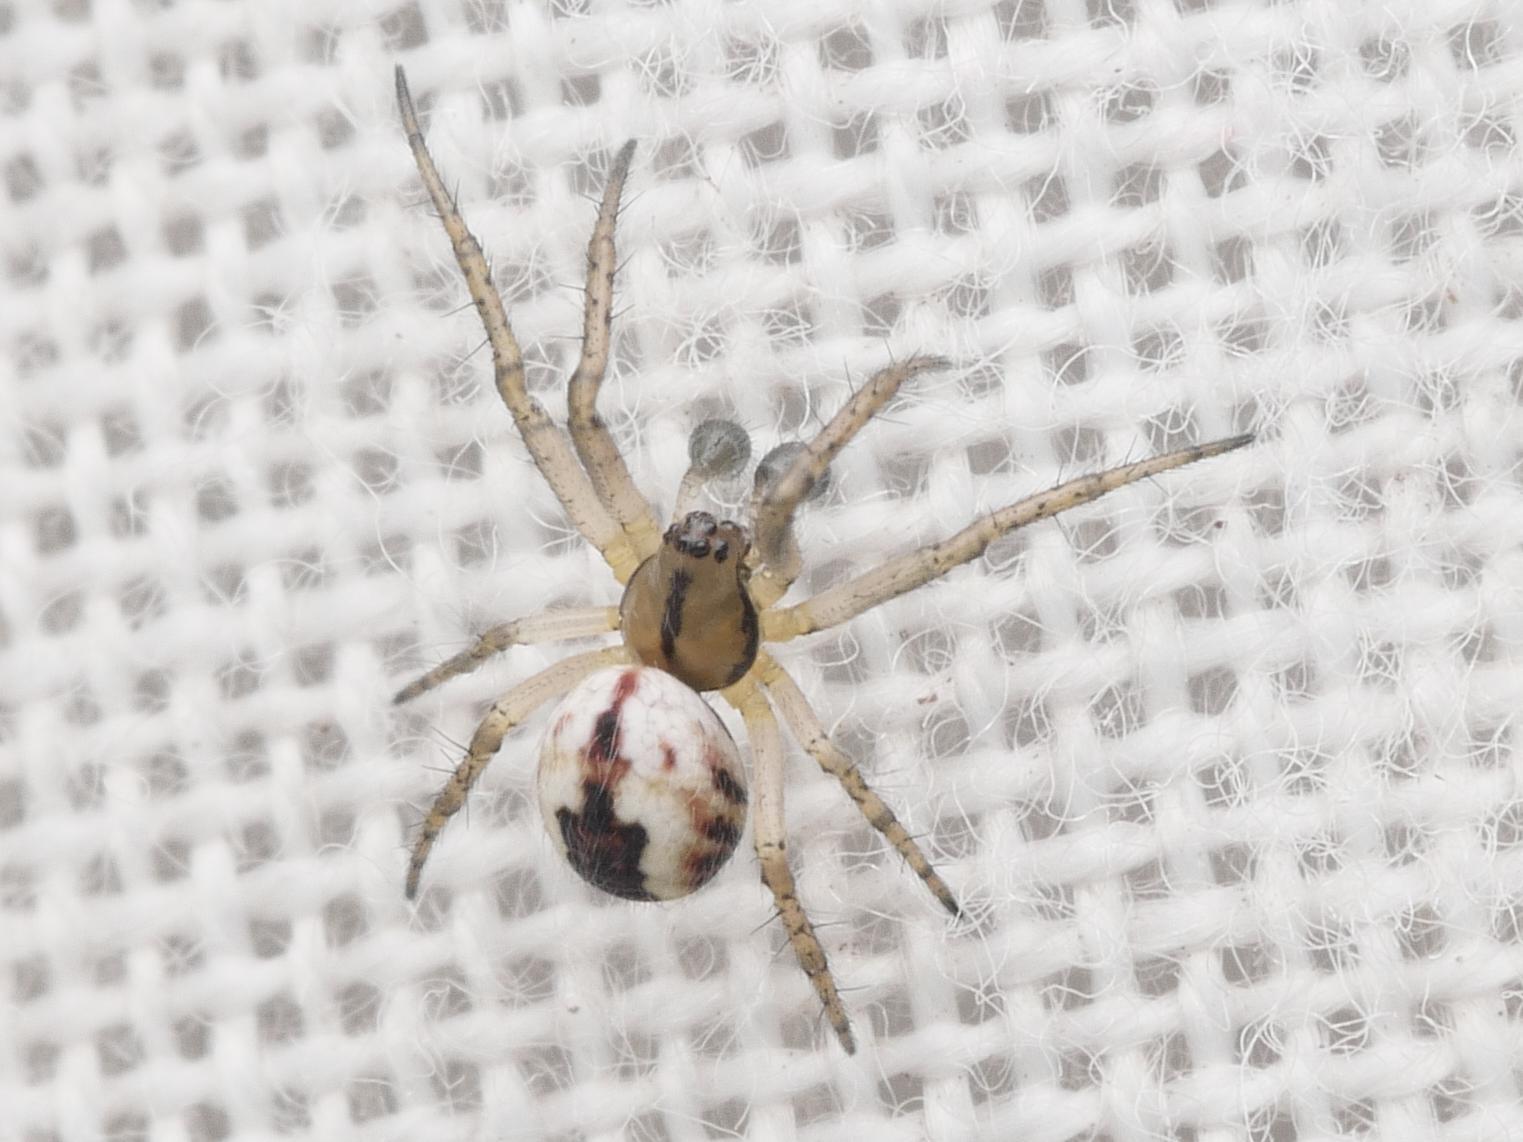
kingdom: Animalia
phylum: Arthropoda
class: Arachnida
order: Araneae
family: Araneidae
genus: Mangora
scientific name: Mangora acalypha
